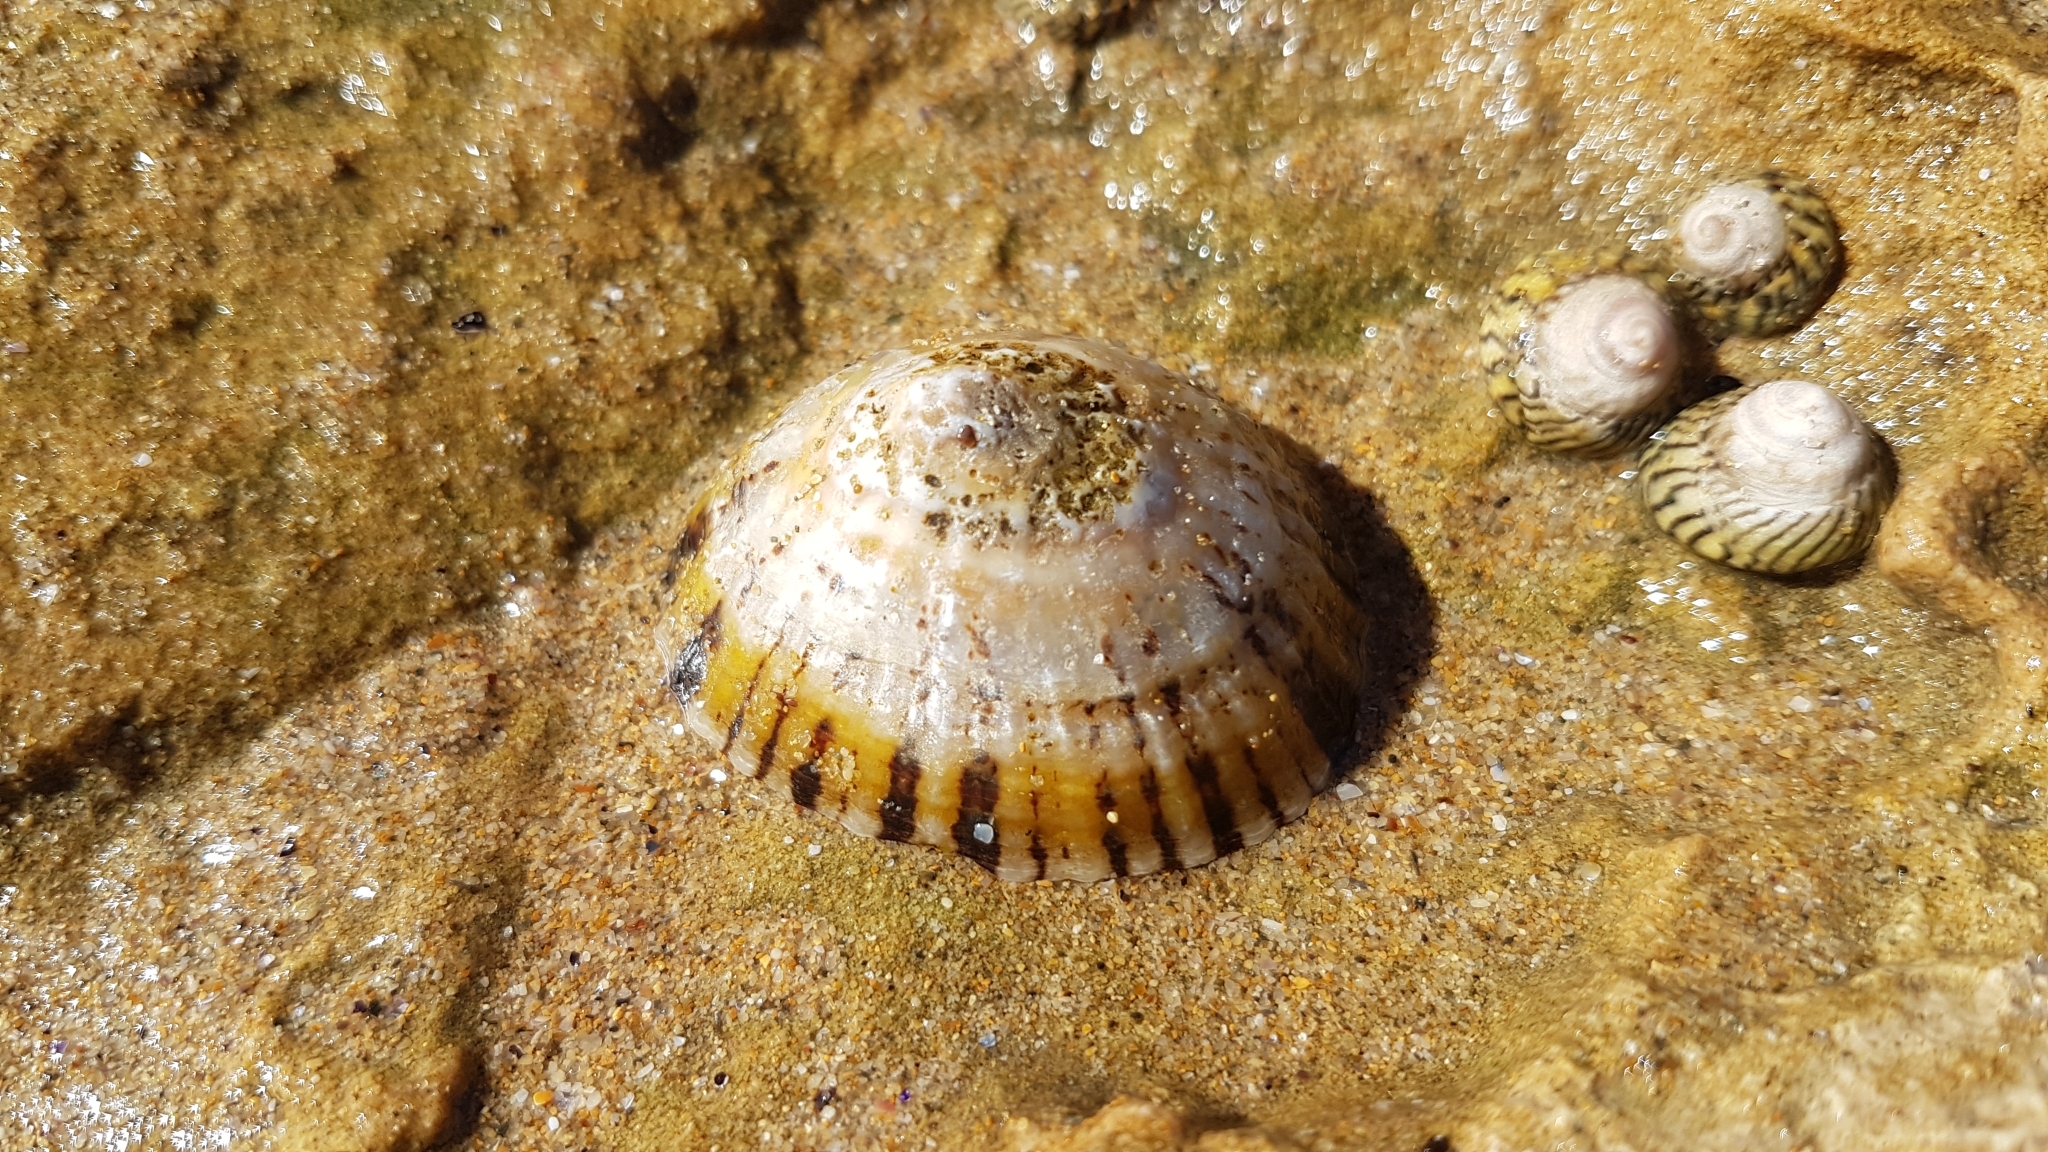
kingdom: Animalia
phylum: Mollusca
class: Gastropoda
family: Nacellidae
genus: Cellana
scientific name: Cellana tramoserica
